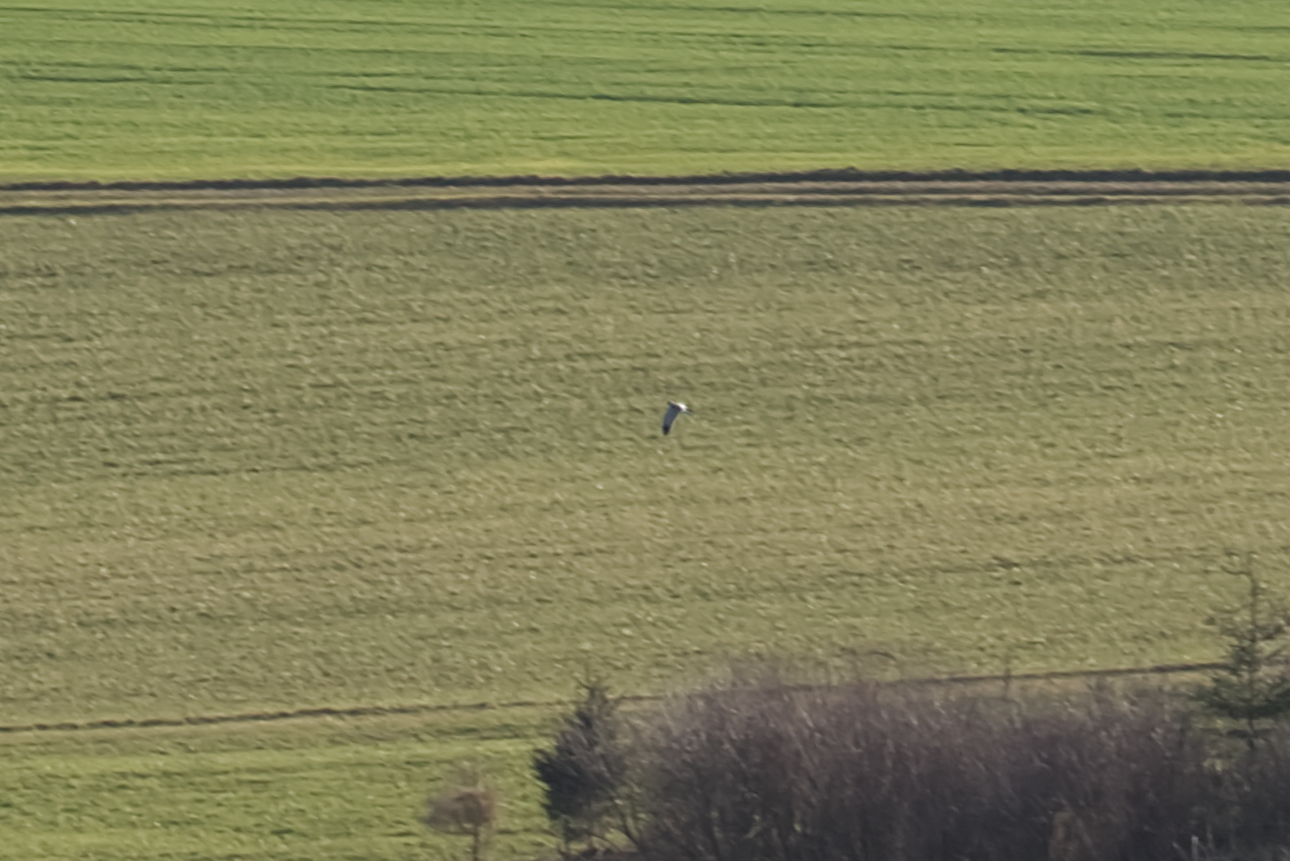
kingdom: Animalia
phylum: Chordata
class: Aves
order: Accipitriformes
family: Accipitridae
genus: Circus
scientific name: Circus cyaneus
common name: Hen harrier
